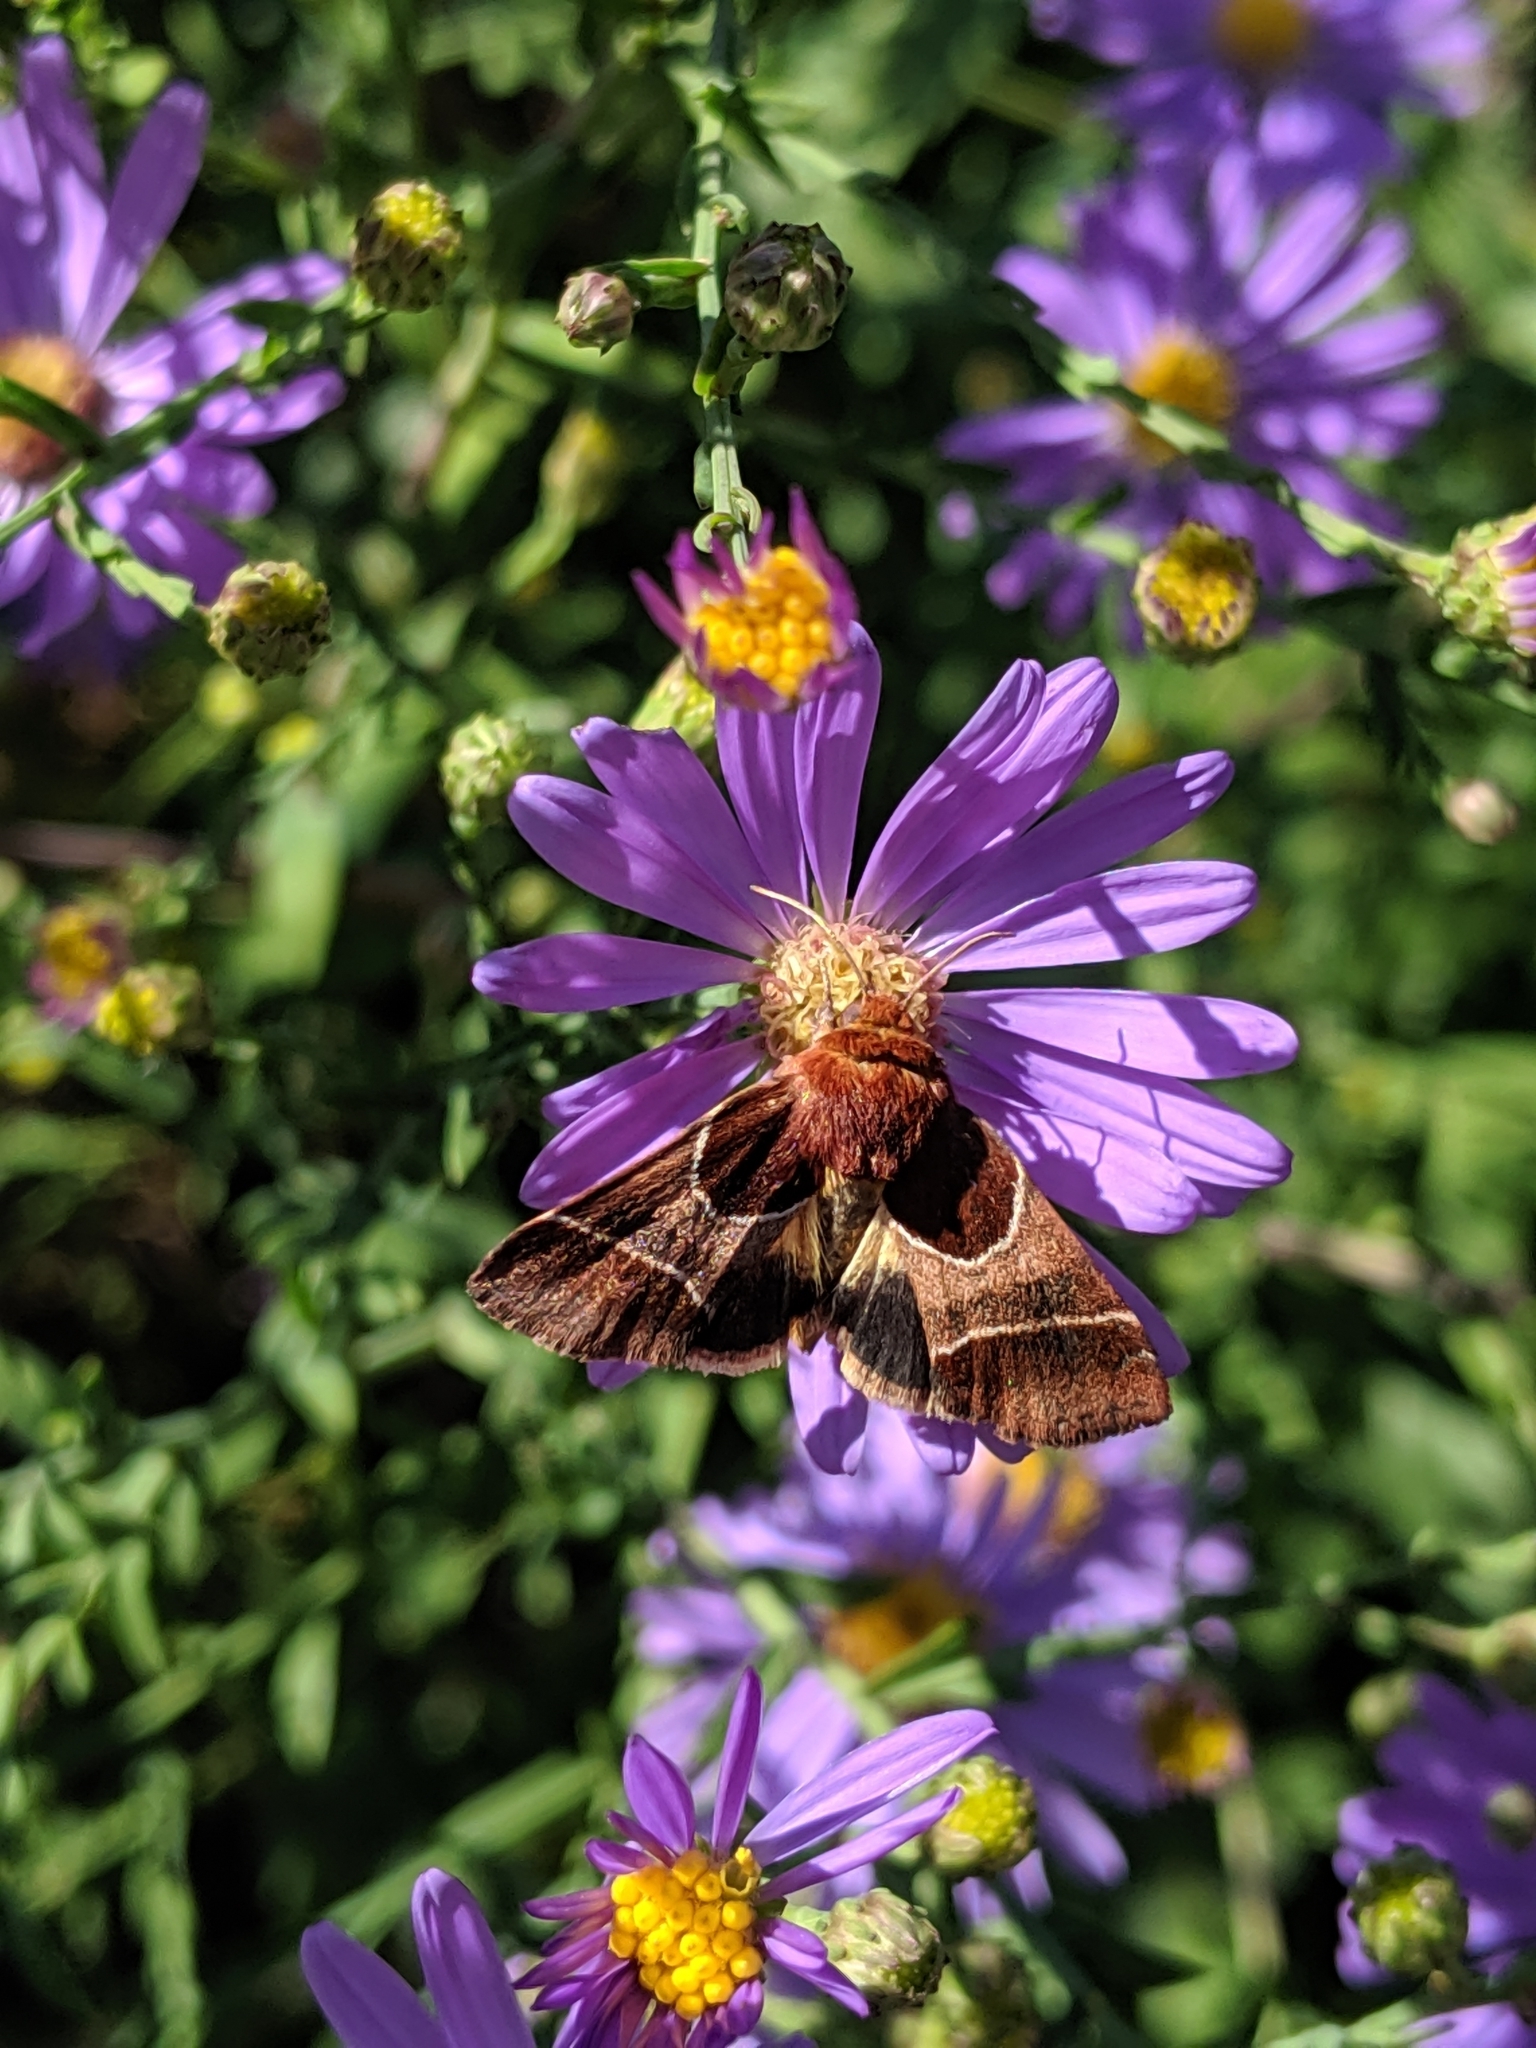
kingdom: Animalia
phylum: Arthropoda
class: Insecta
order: Lepidoptera
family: Noctuidae
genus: Schinia
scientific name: Schinia arcigera
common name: Arcigera flower moth
